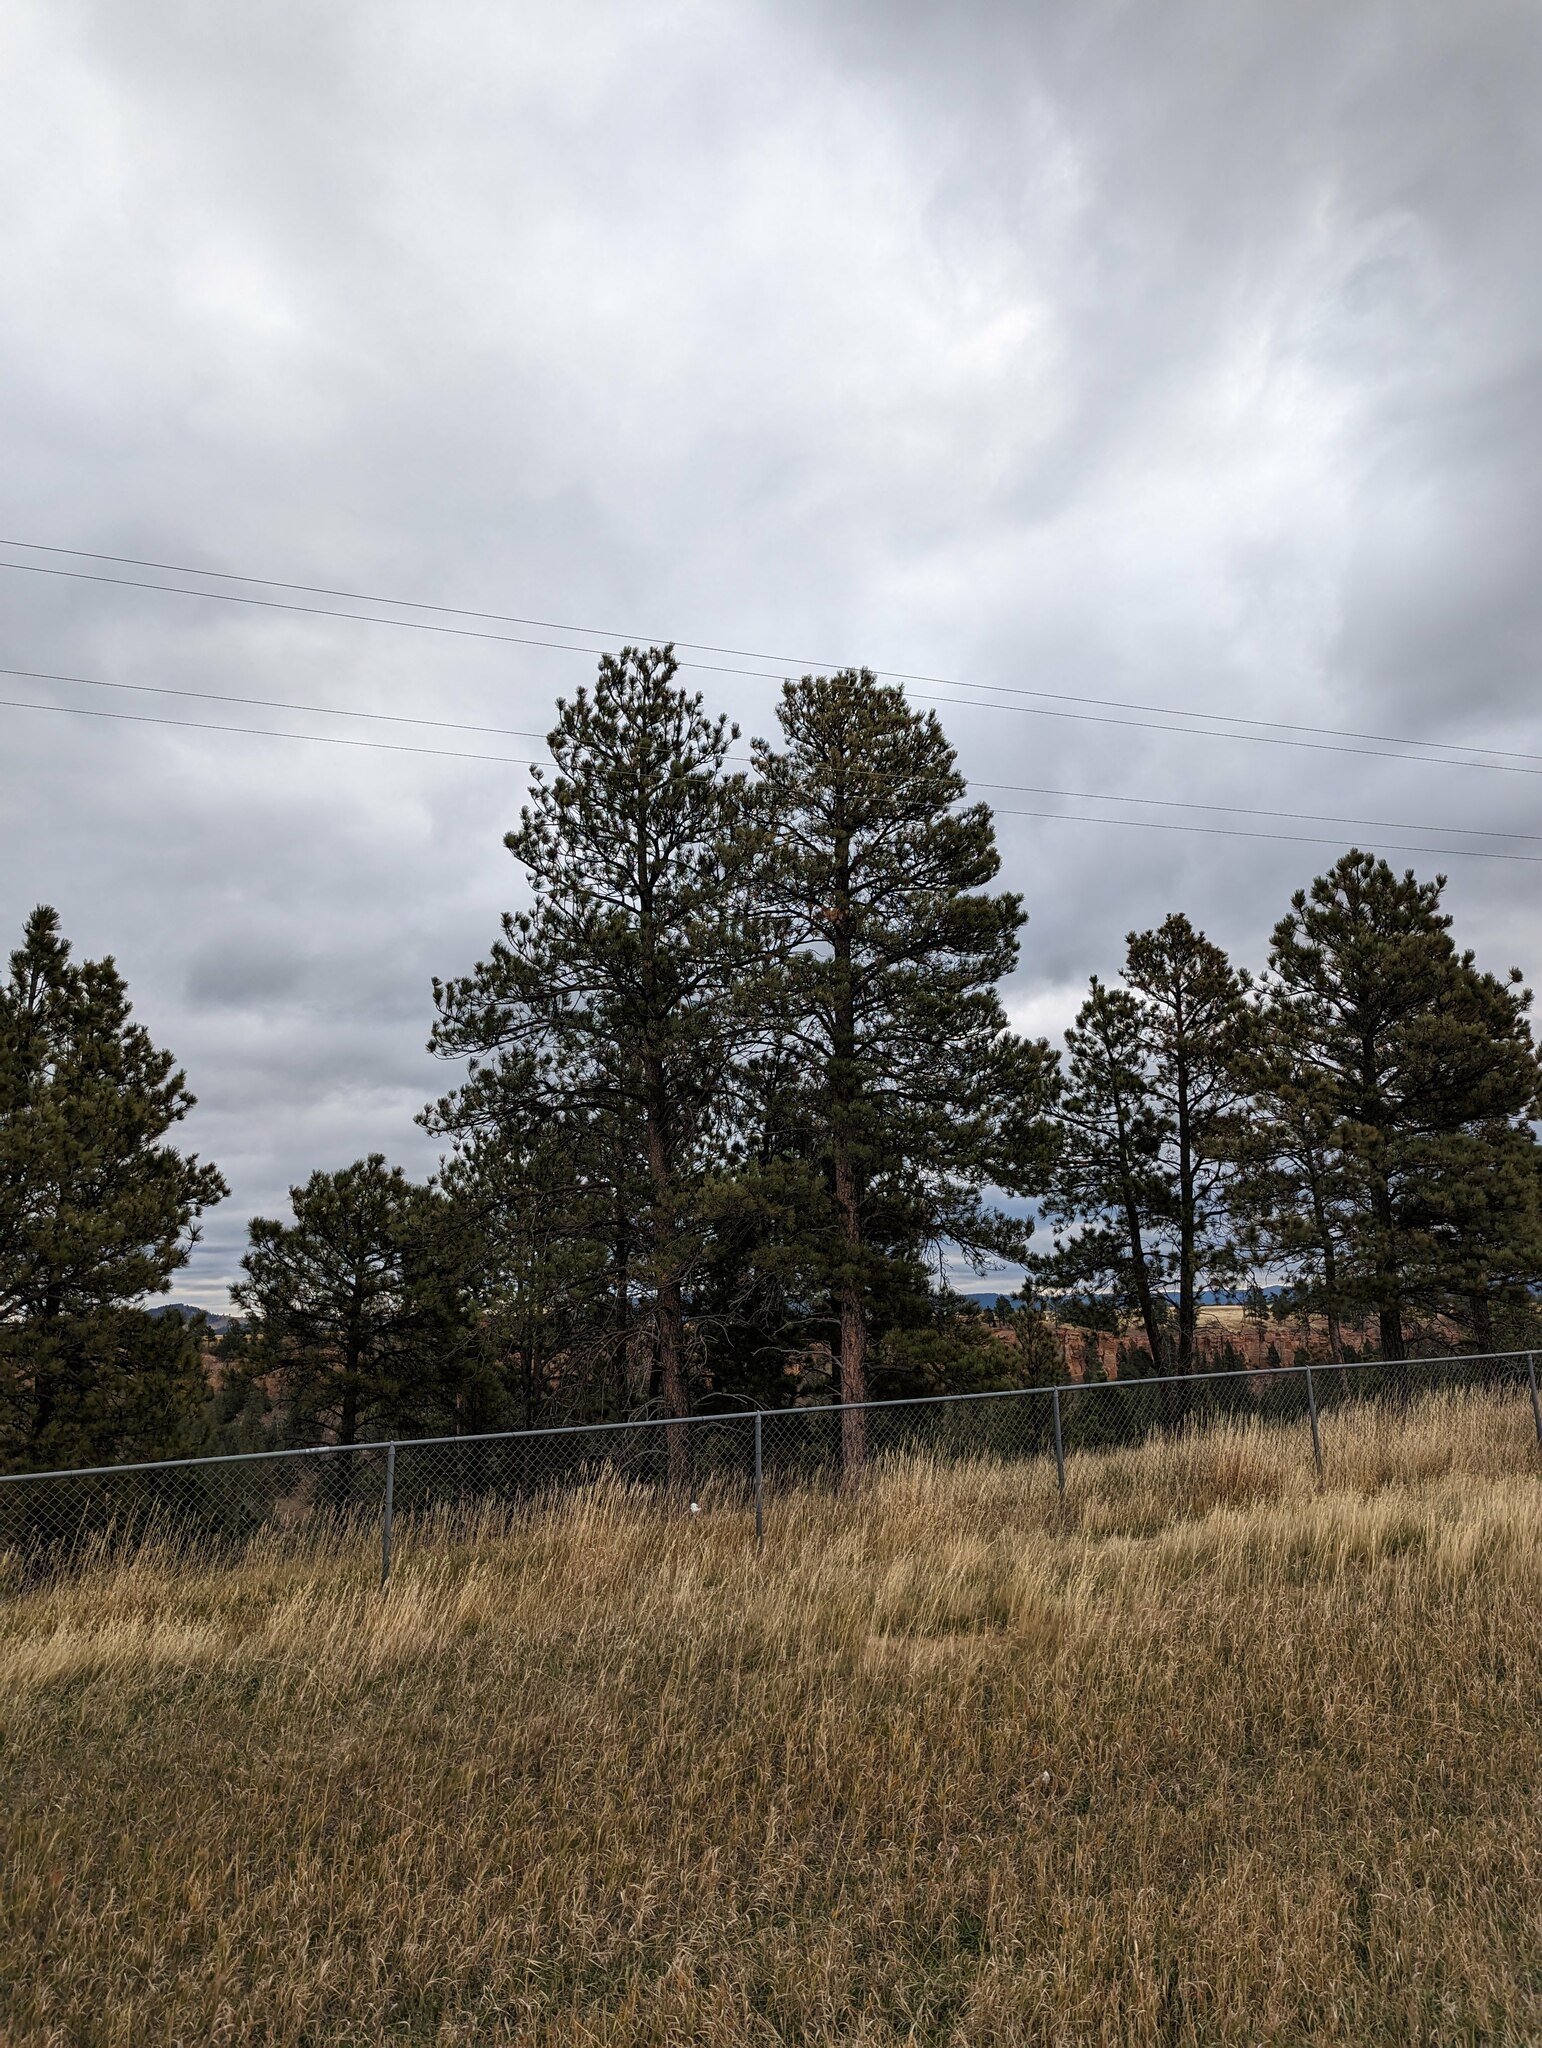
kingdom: Plantae
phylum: Tracheophyta
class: Pinopsida
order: Pinales
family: Pinaceae
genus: Pinus
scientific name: Pinus ponderosa
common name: Western yellow-pine
